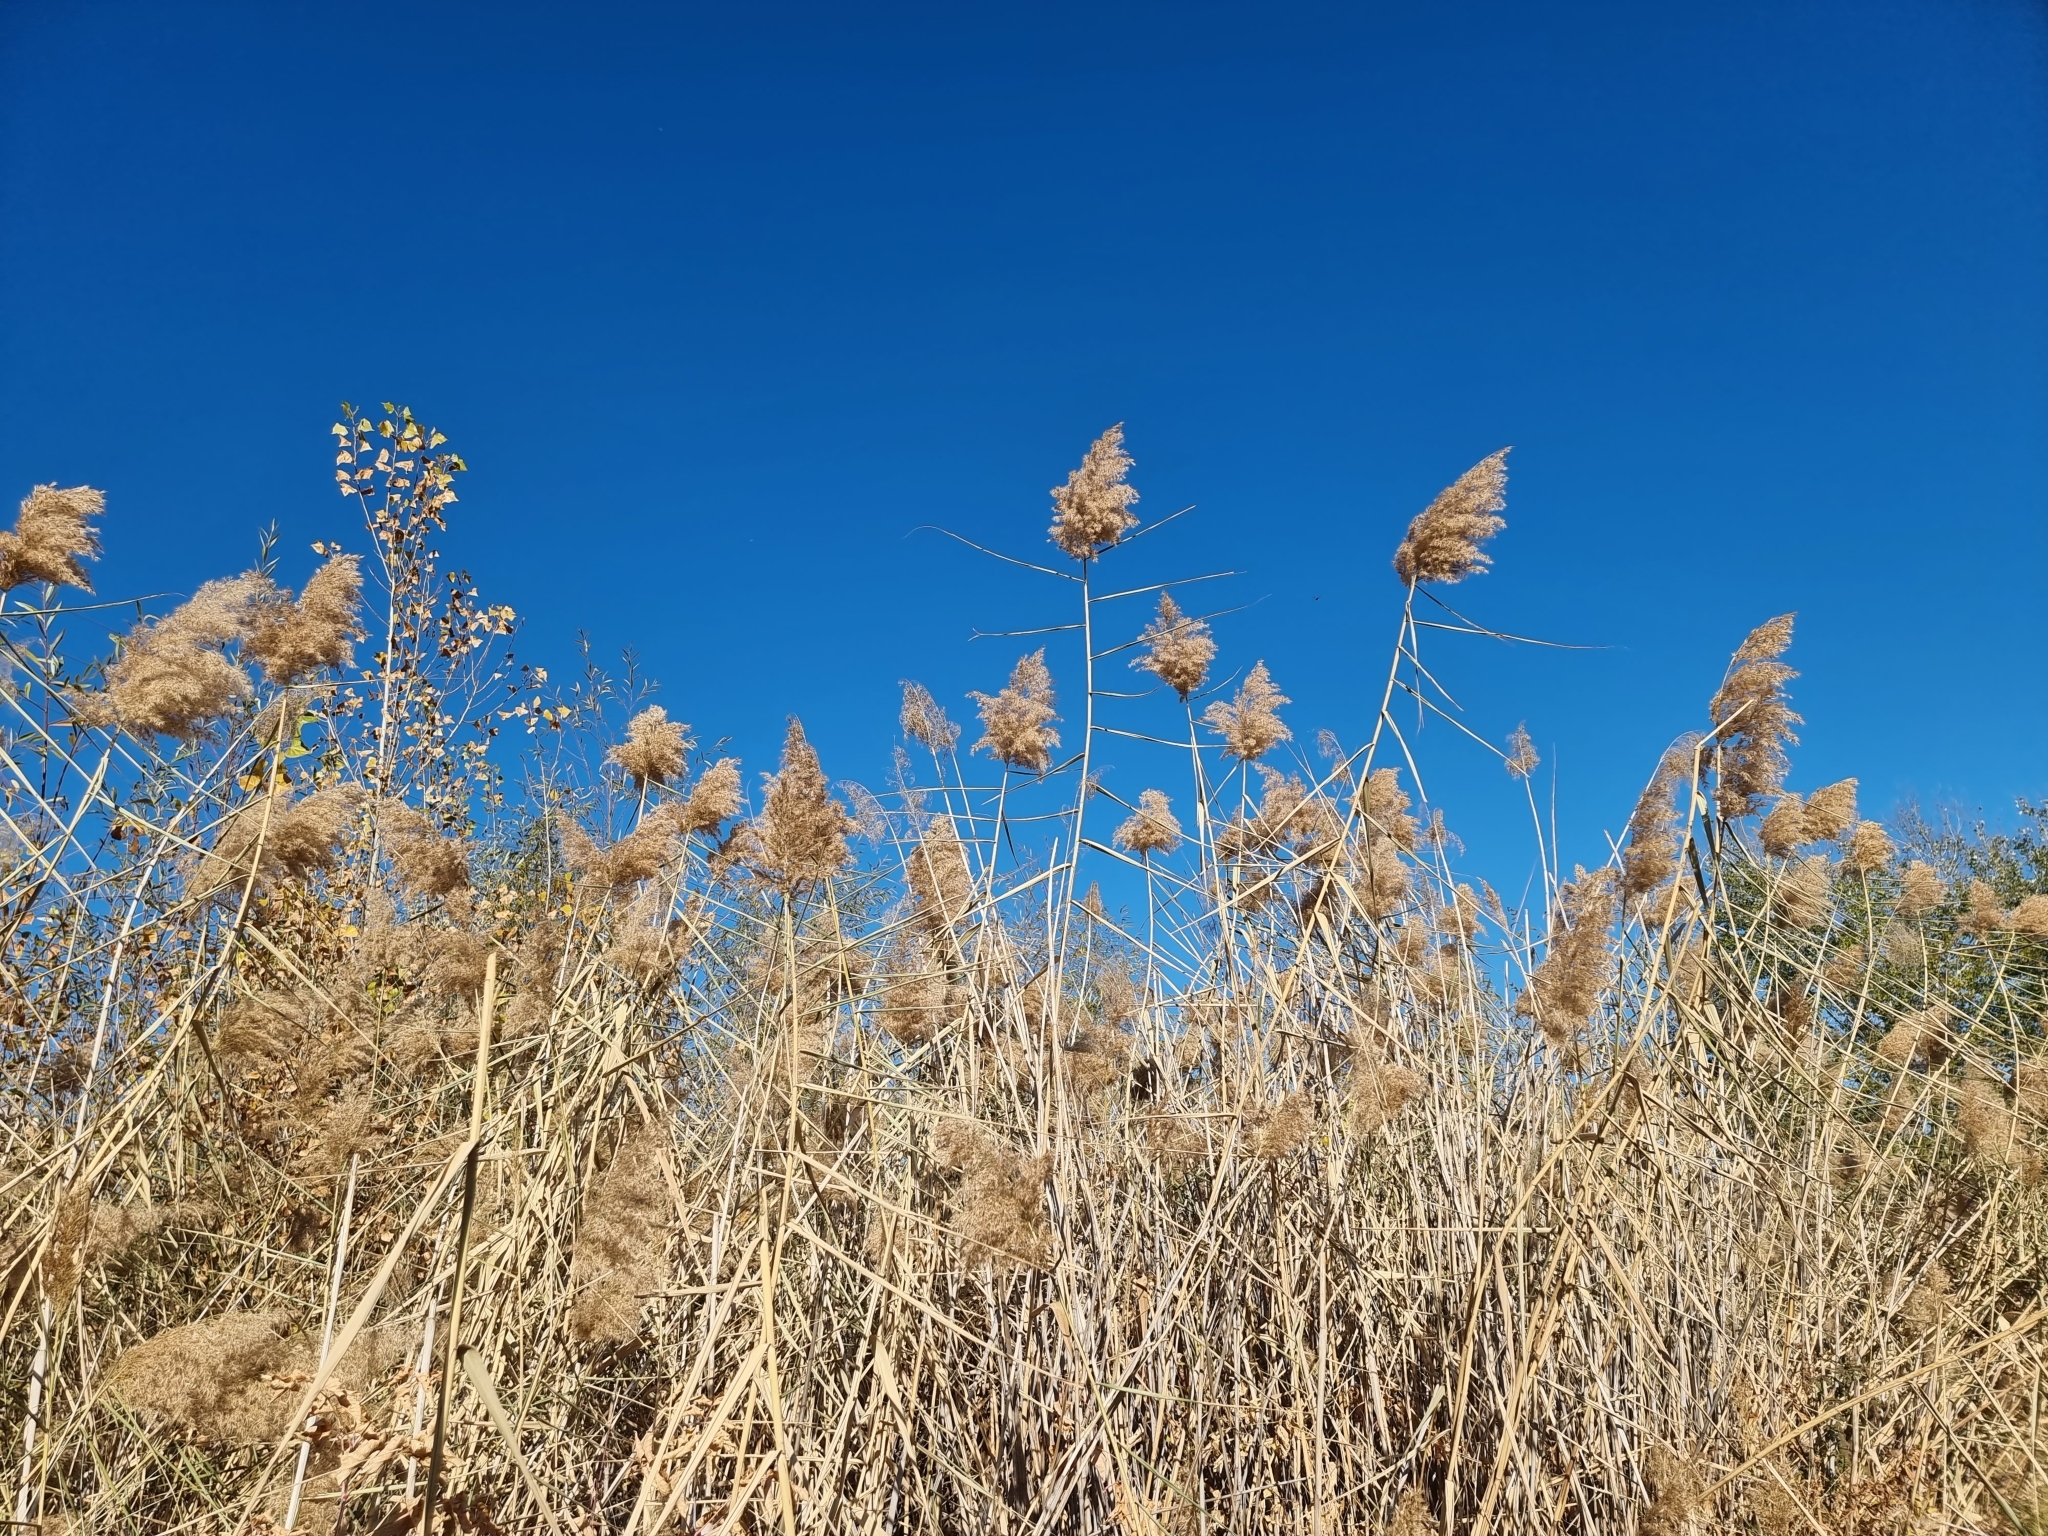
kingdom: Plantae
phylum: Tracheophyta
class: Liliopsida
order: Poales
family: Poaceae
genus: Phragmites
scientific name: Phragmites australis
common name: Common reed
